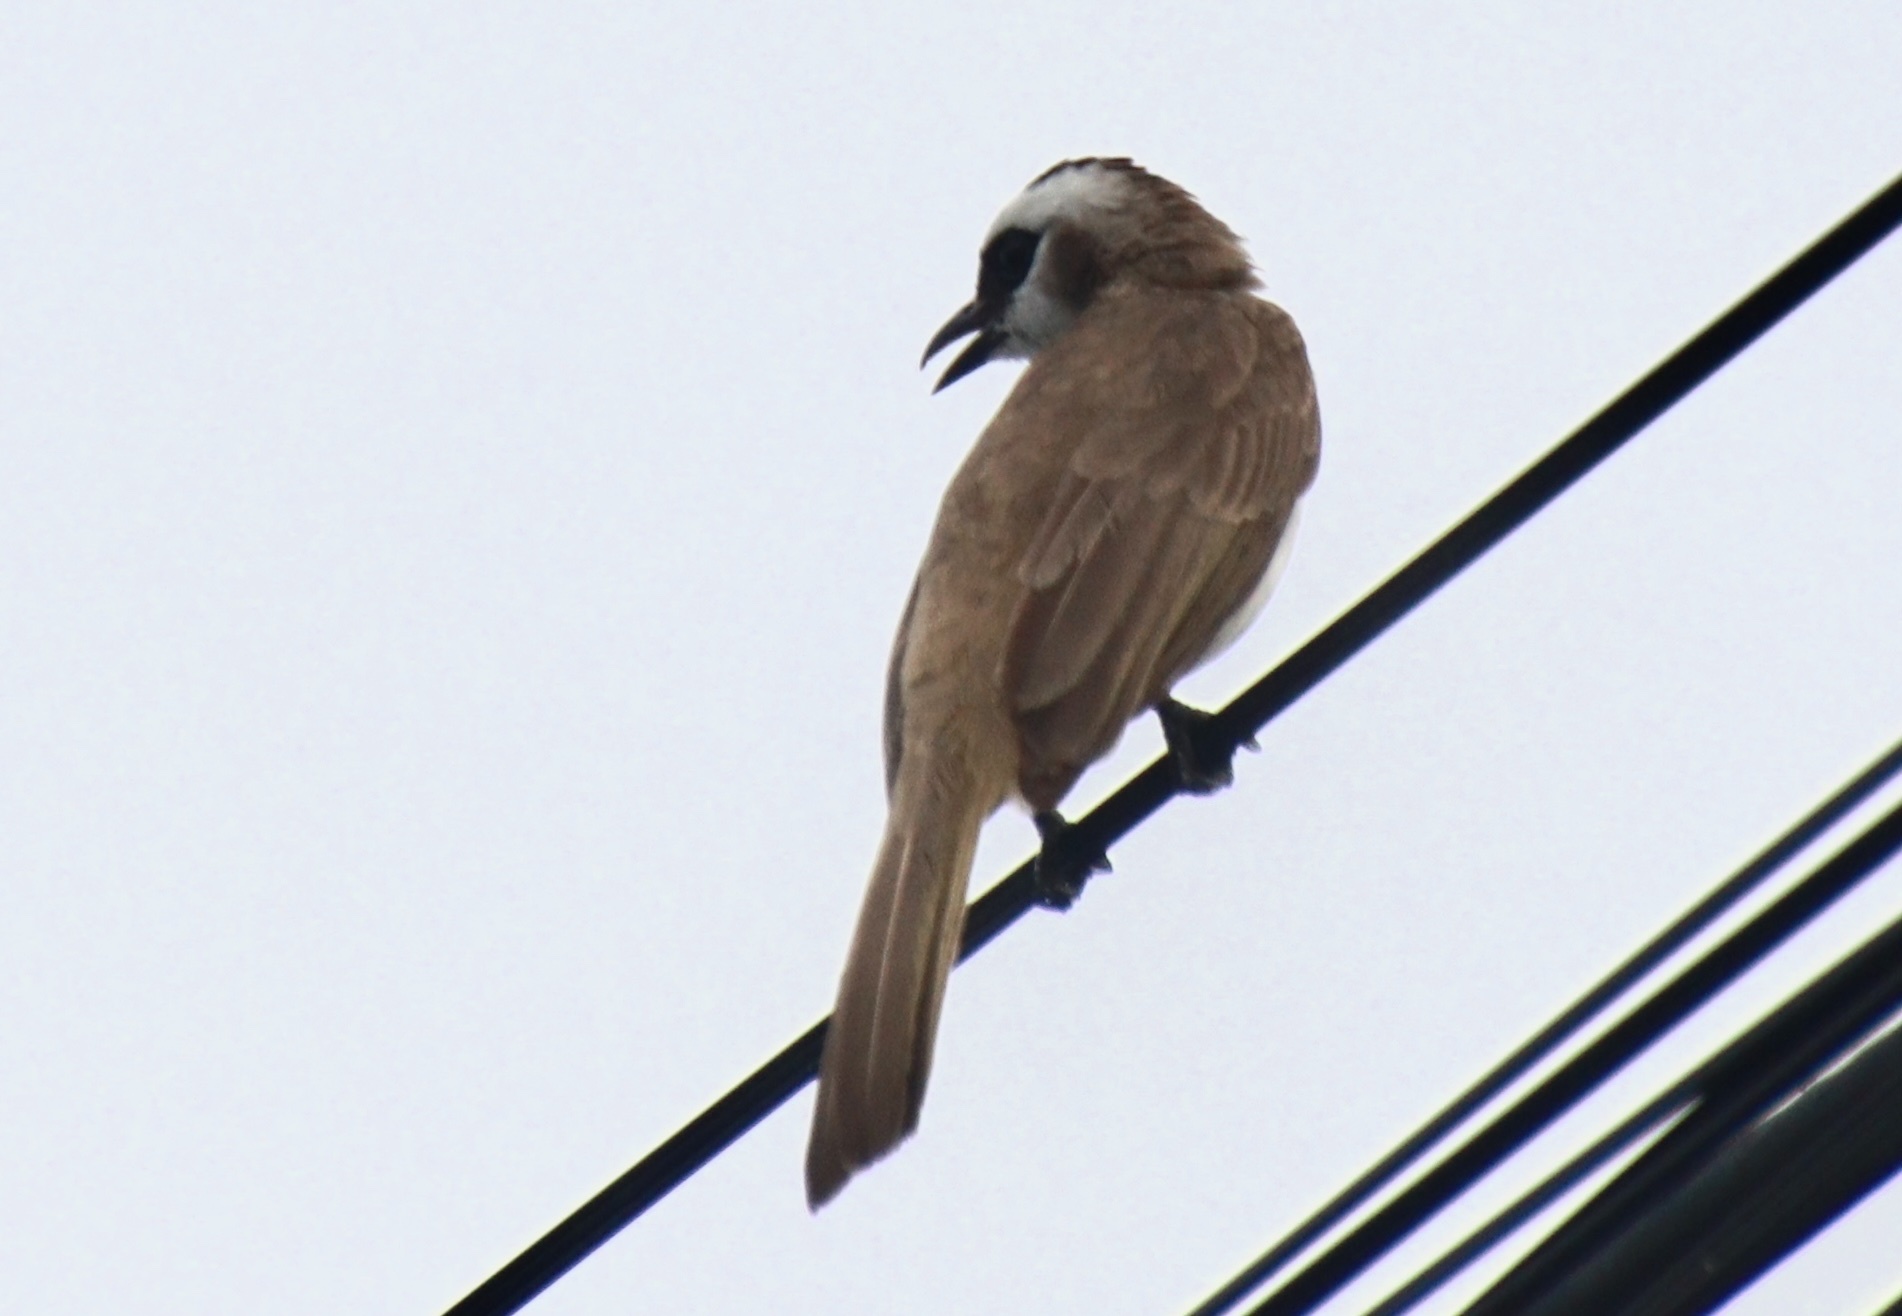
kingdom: Animalia
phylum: Chordata
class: Aves
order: Passeriformes
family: Pycnonotidae
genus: Pycnonotus
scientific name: Pycnonotus goiavier
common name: Yellow-vented bulbul
